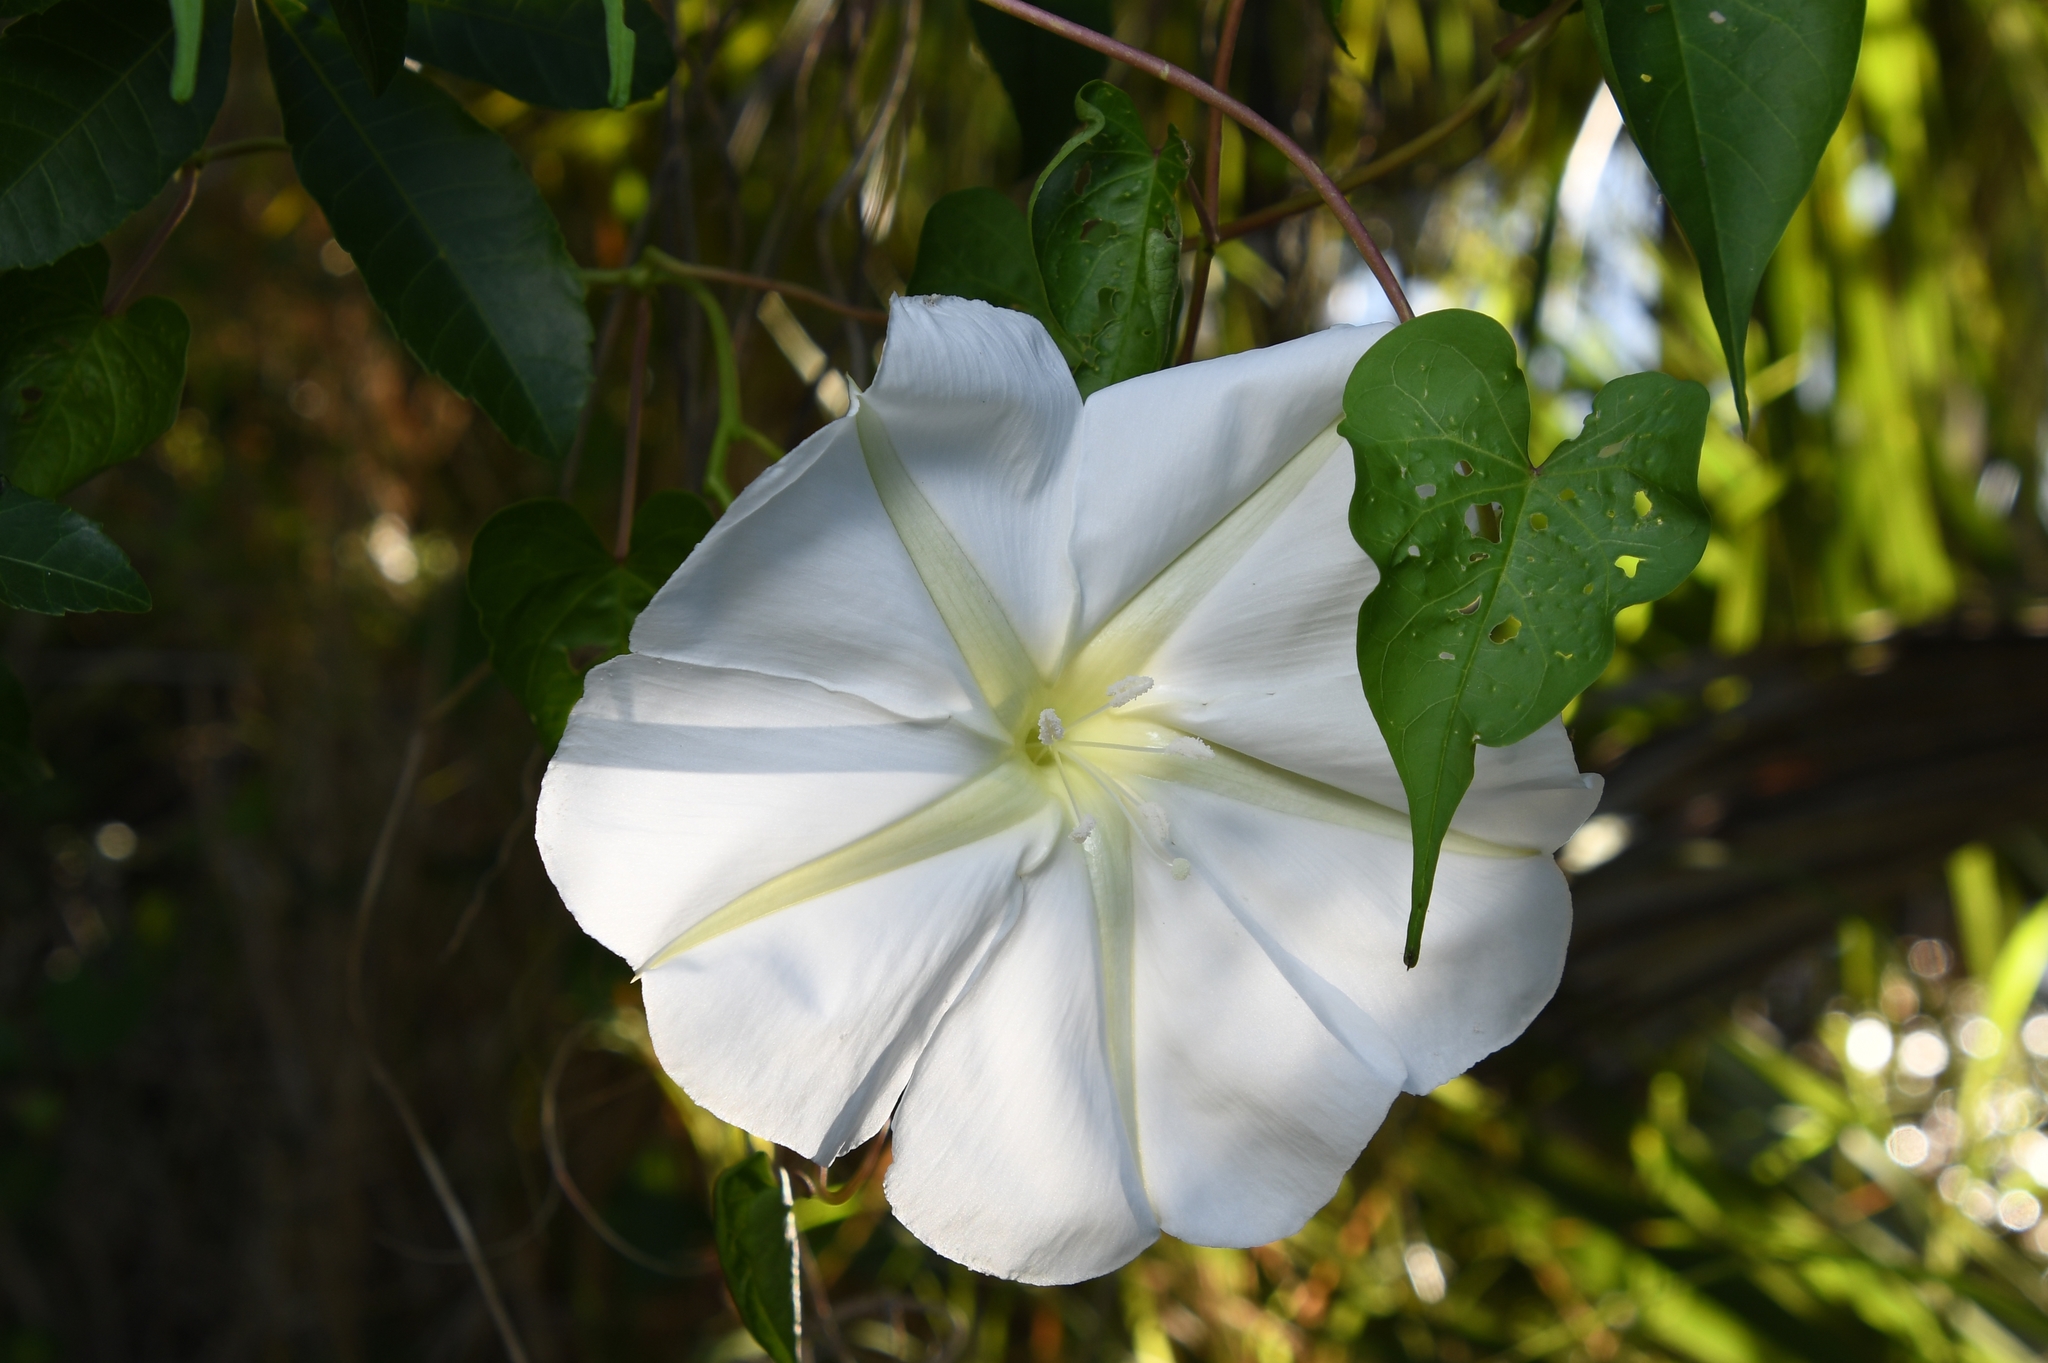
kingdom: Plantae
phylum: Tracheophyta
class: Magnoliopsida
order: Solanales
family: Convolvulaceae
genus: Ipomoea
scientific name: Ipomoea alba
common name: Moonflower
